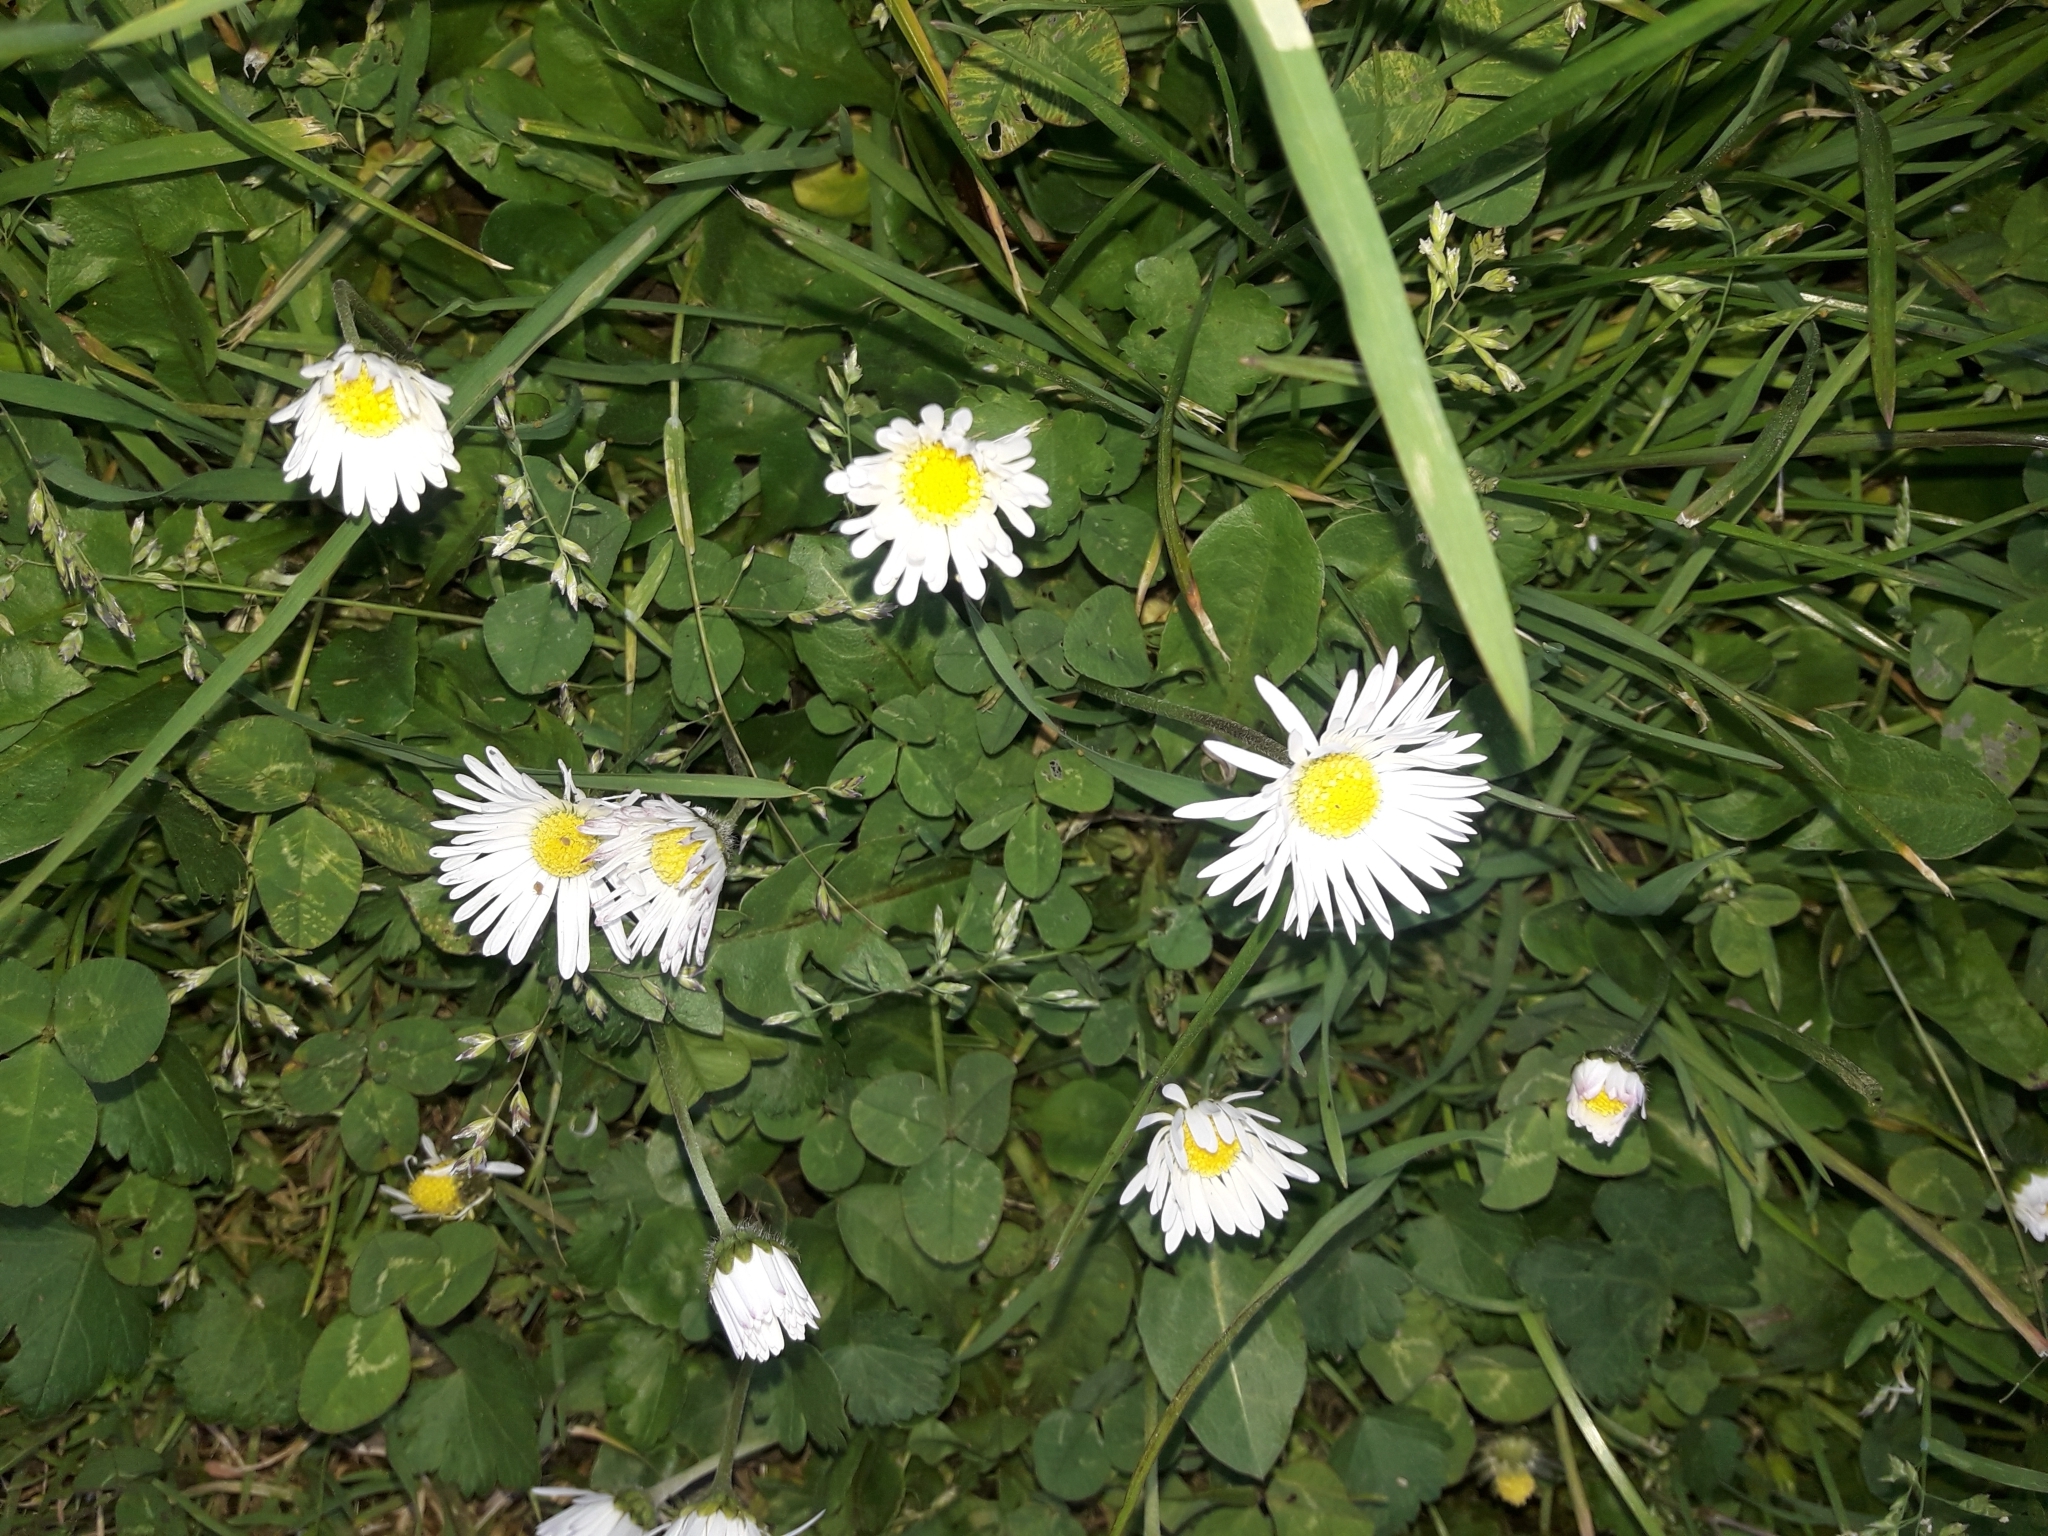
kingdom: Plantae
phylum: Tracheophyta
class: Magnoliopsida
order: Asterales
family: Asteraceae
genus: Bellis
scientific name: Bellis perennis
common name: Lawndaisy
